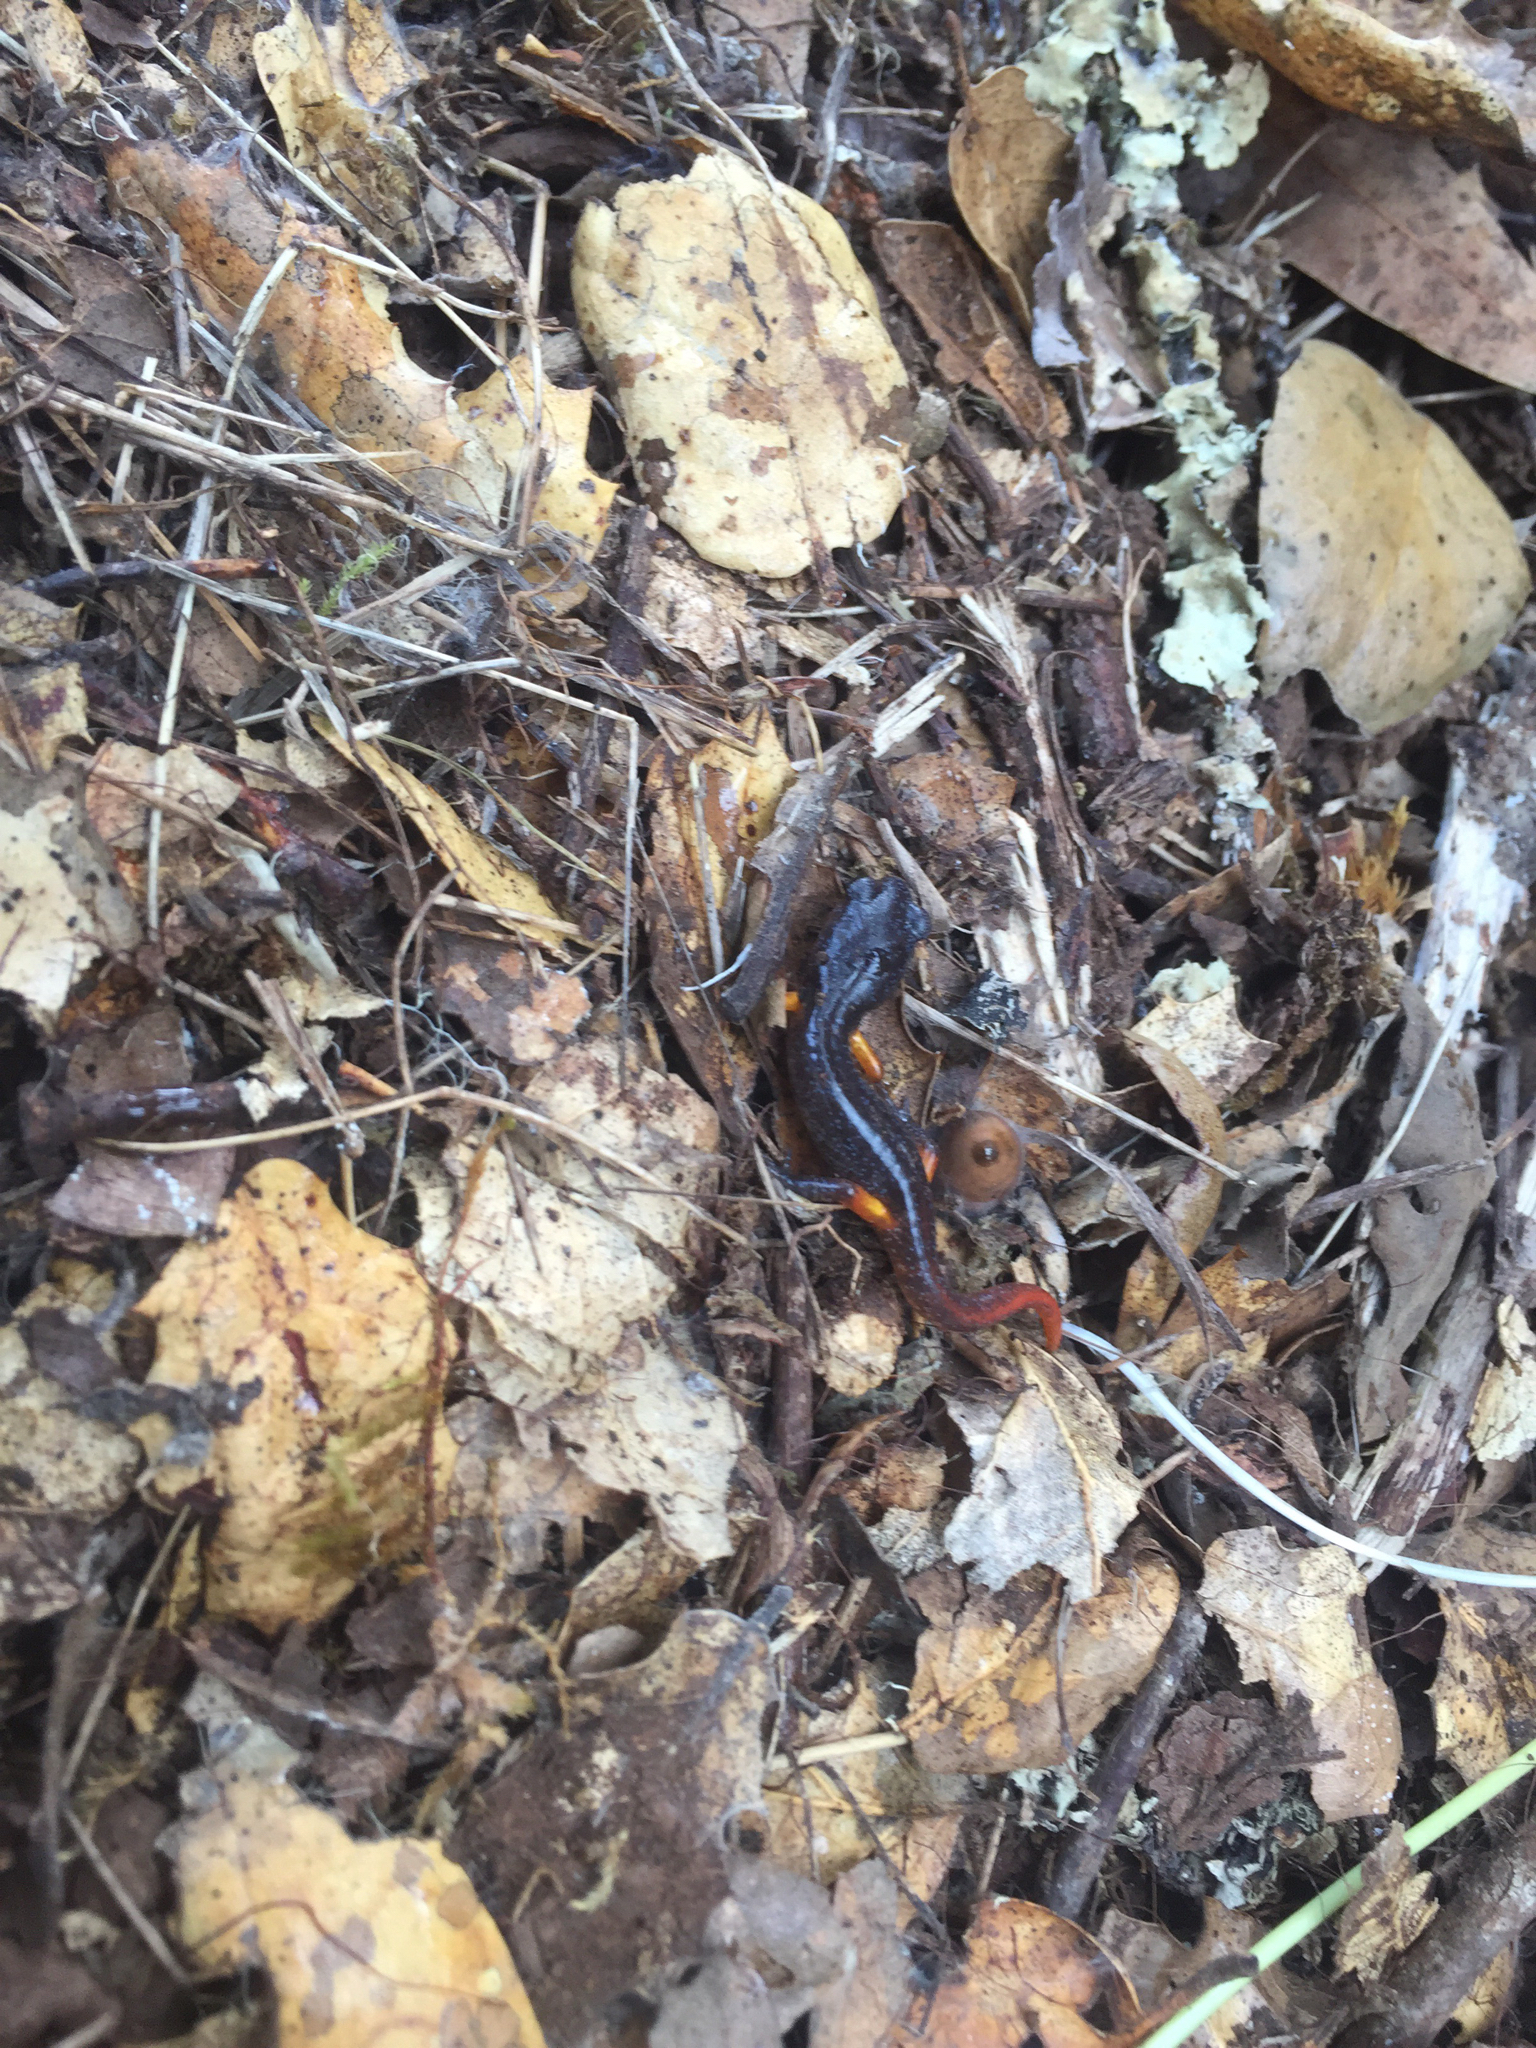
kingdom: Animalia
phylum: Chordata
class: Amphibia
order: Caudata
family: Plethodontidae
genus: Ensatina
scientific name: Ensatina eschscholtzii
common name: Ensatina
